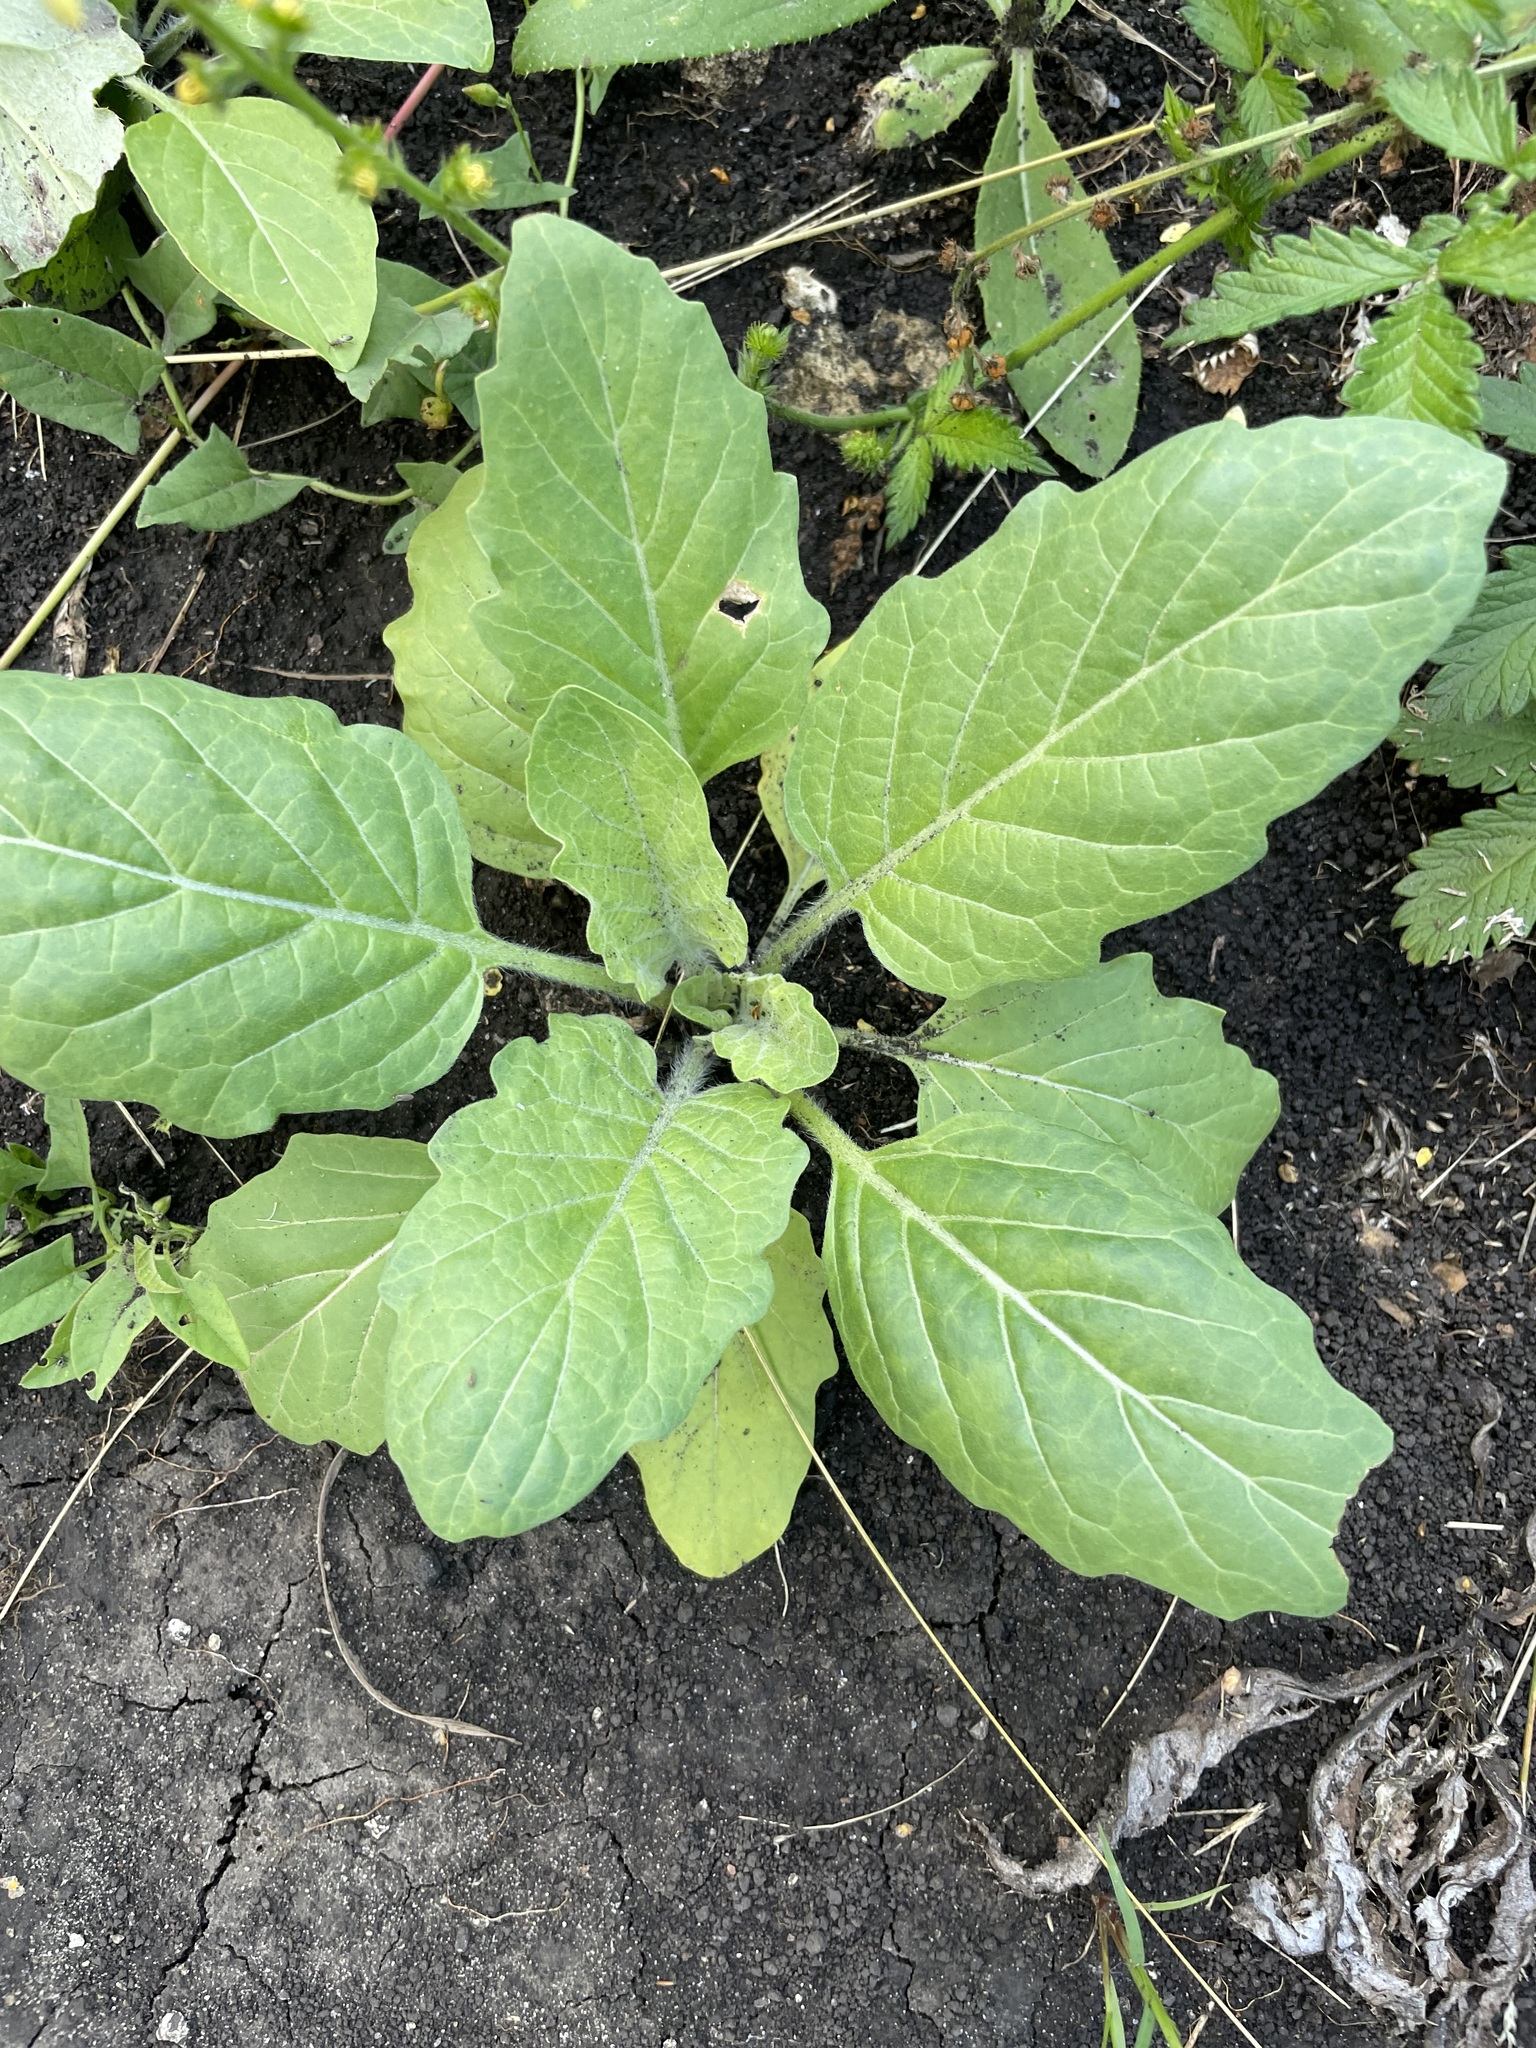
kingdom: Plantae
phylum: Tracheophyta
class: Magnoliopsida
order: Solanales
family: Solanaceae
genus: Hyoscyamus
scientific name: Hyoscyamus niger
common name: Henbane
